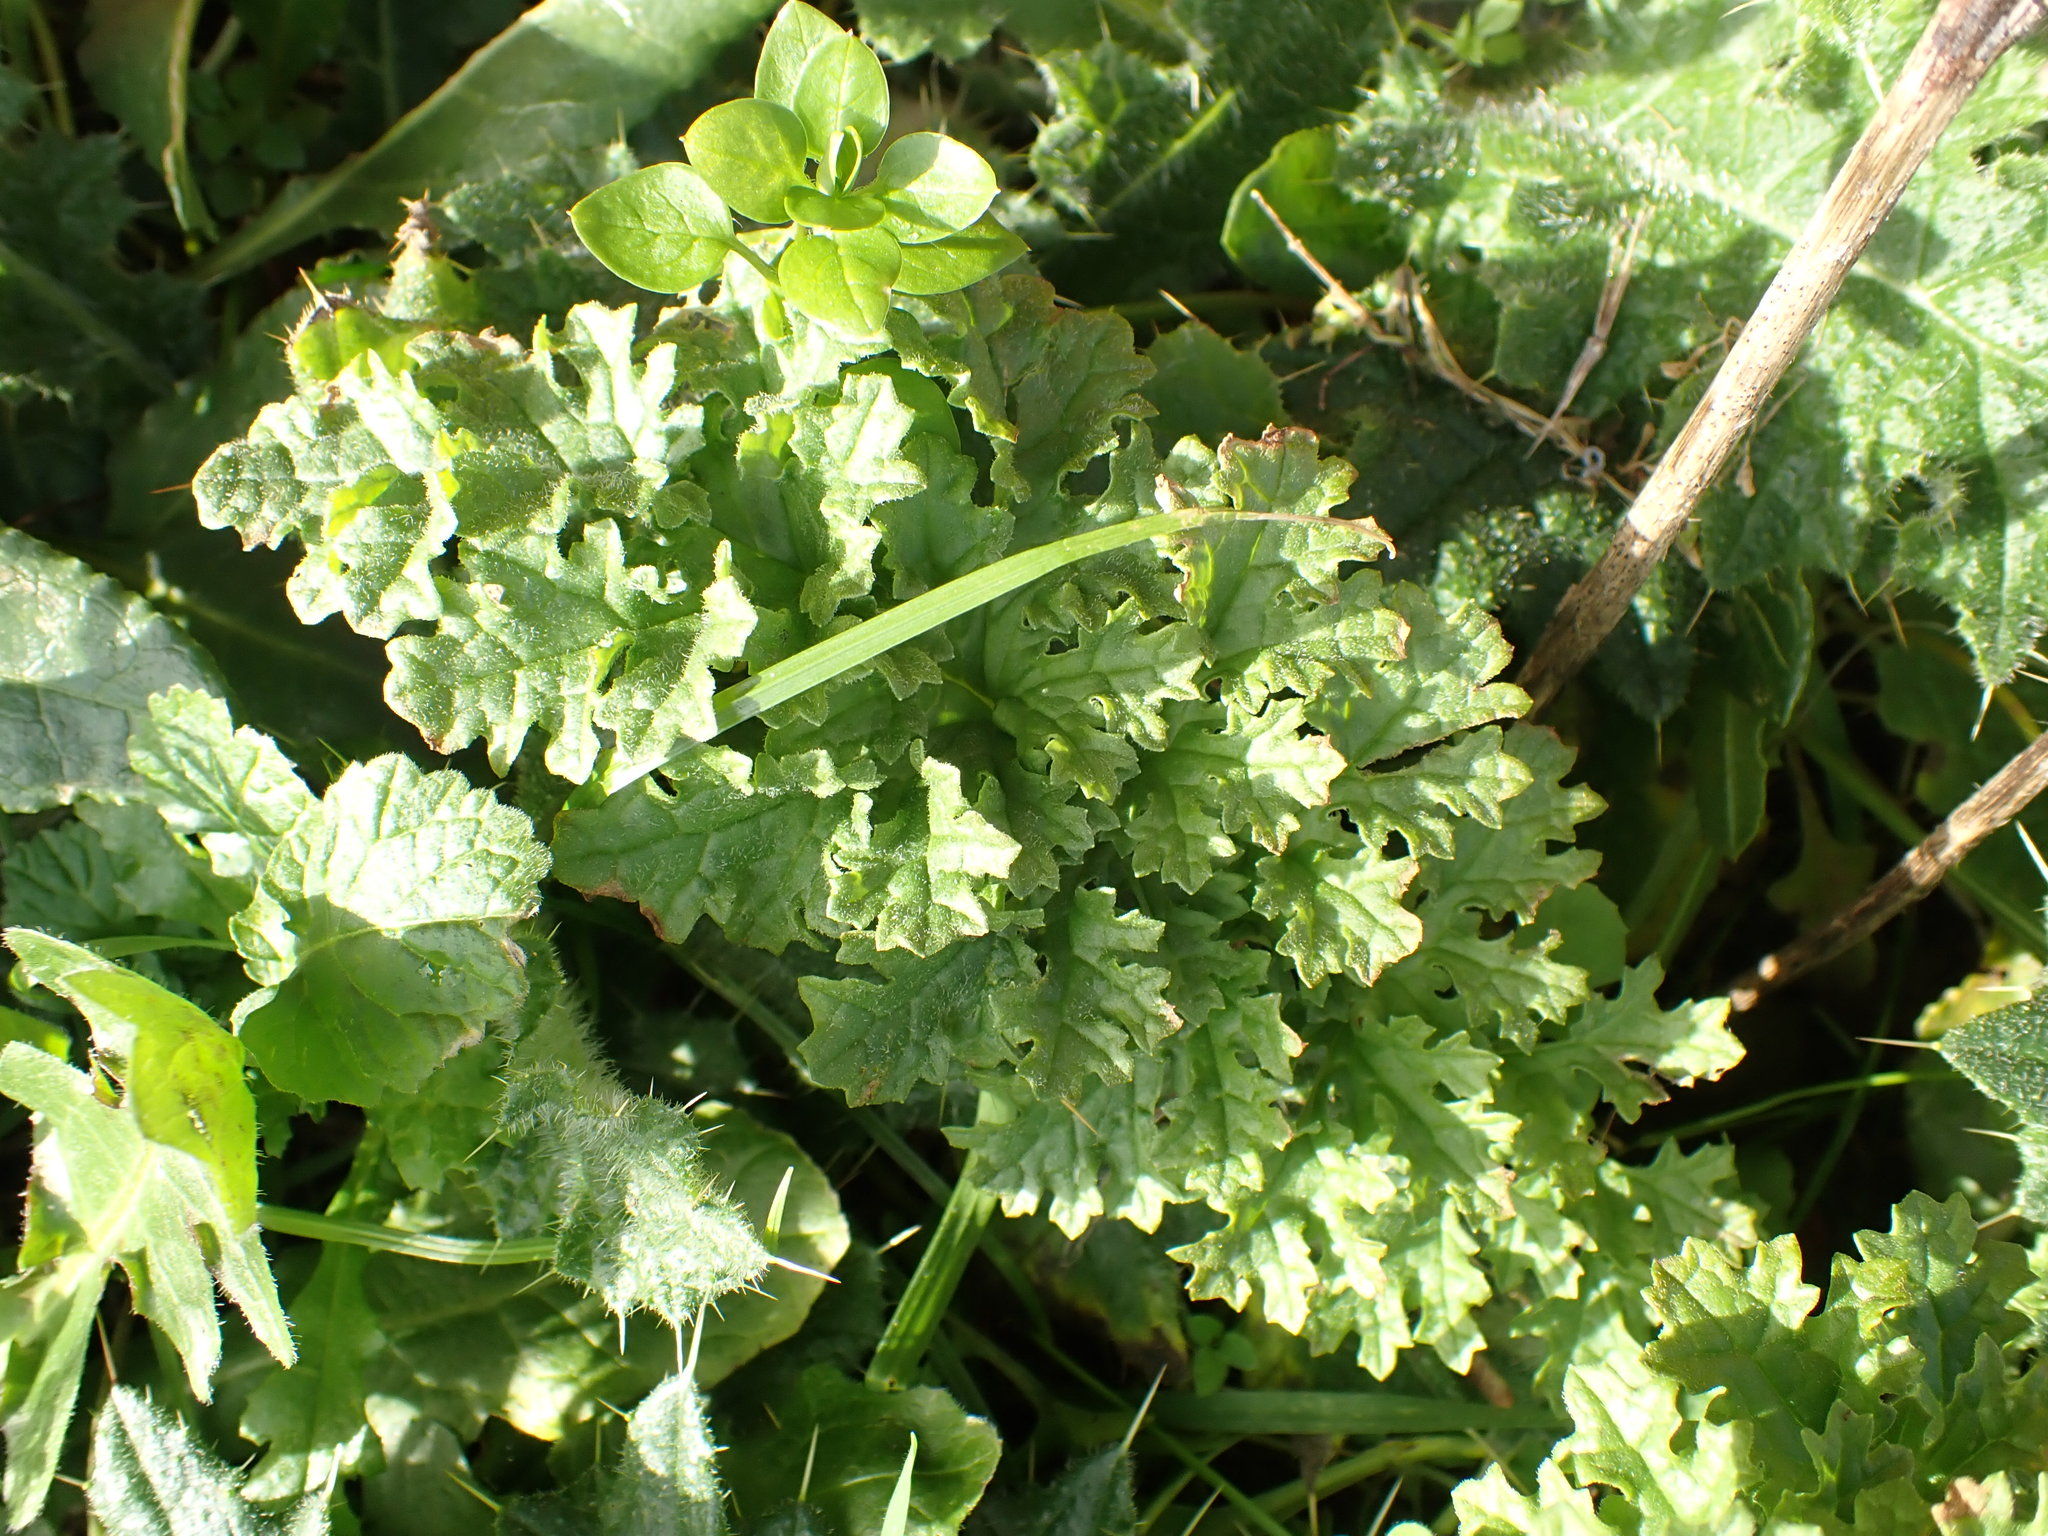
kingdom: Plantae
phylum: Tracheophyta
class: Magnoliopsida
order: Asterales
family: Asteraceae
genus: Jacobaea
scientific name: Jacobaea vulgaris
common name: Stinking willie
